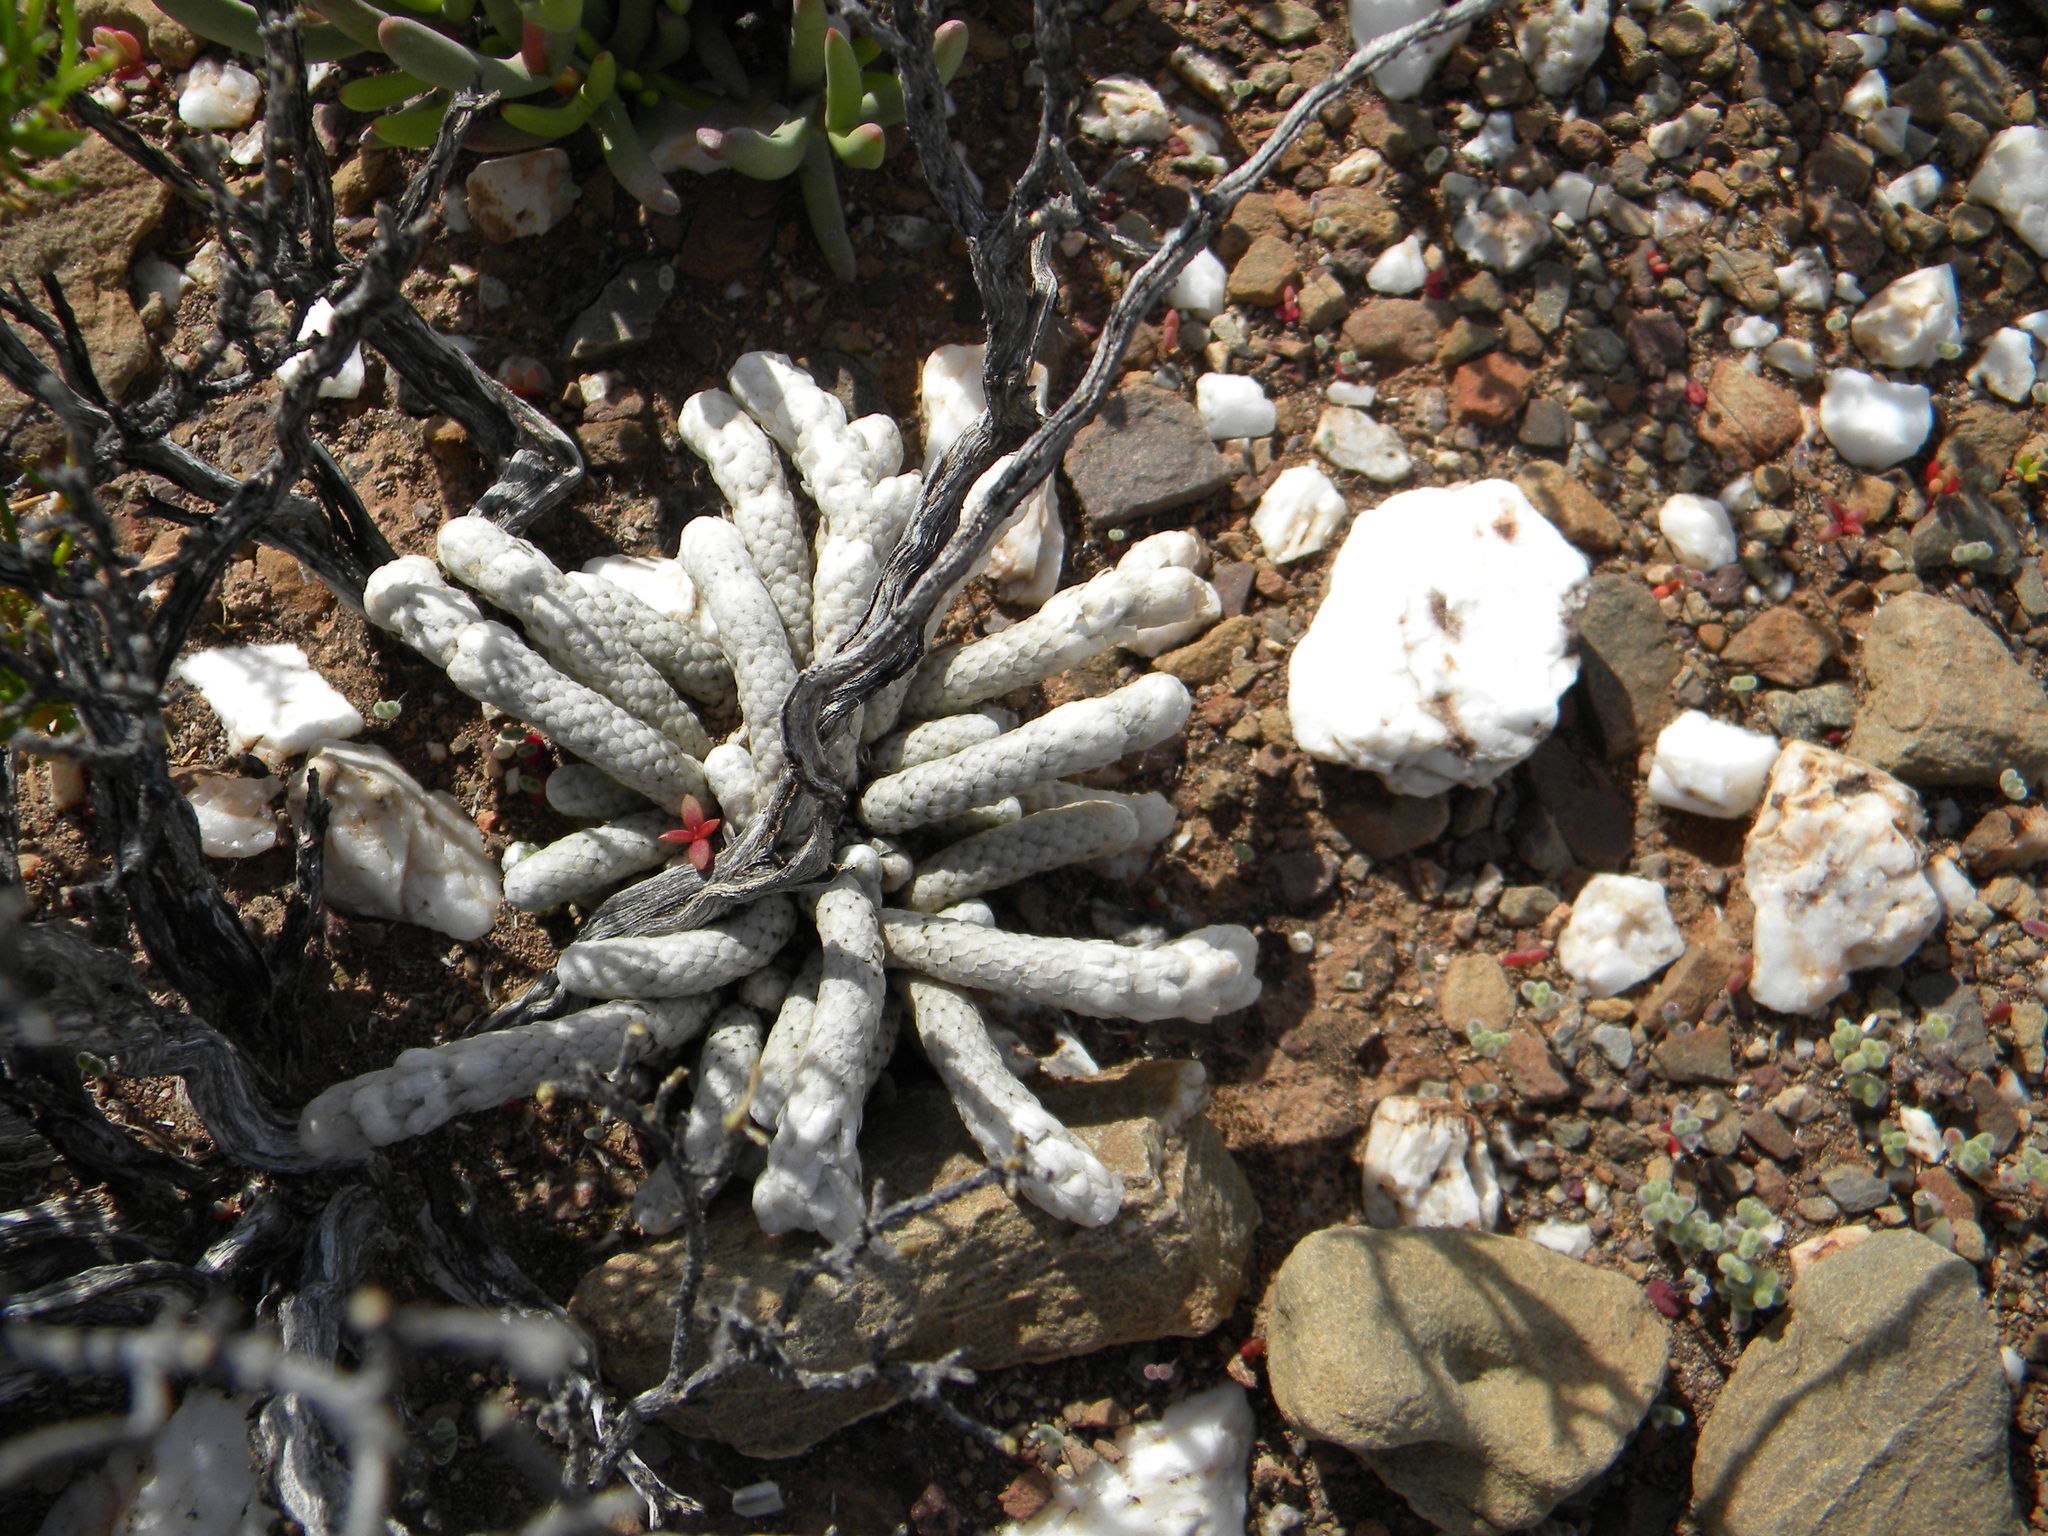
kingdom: Plantae
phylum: Tracheophyta
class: Magnoliopsida
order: Caryophyllales
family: Anacampserotaceae
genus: Avonia
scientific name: Avonia papyracea
